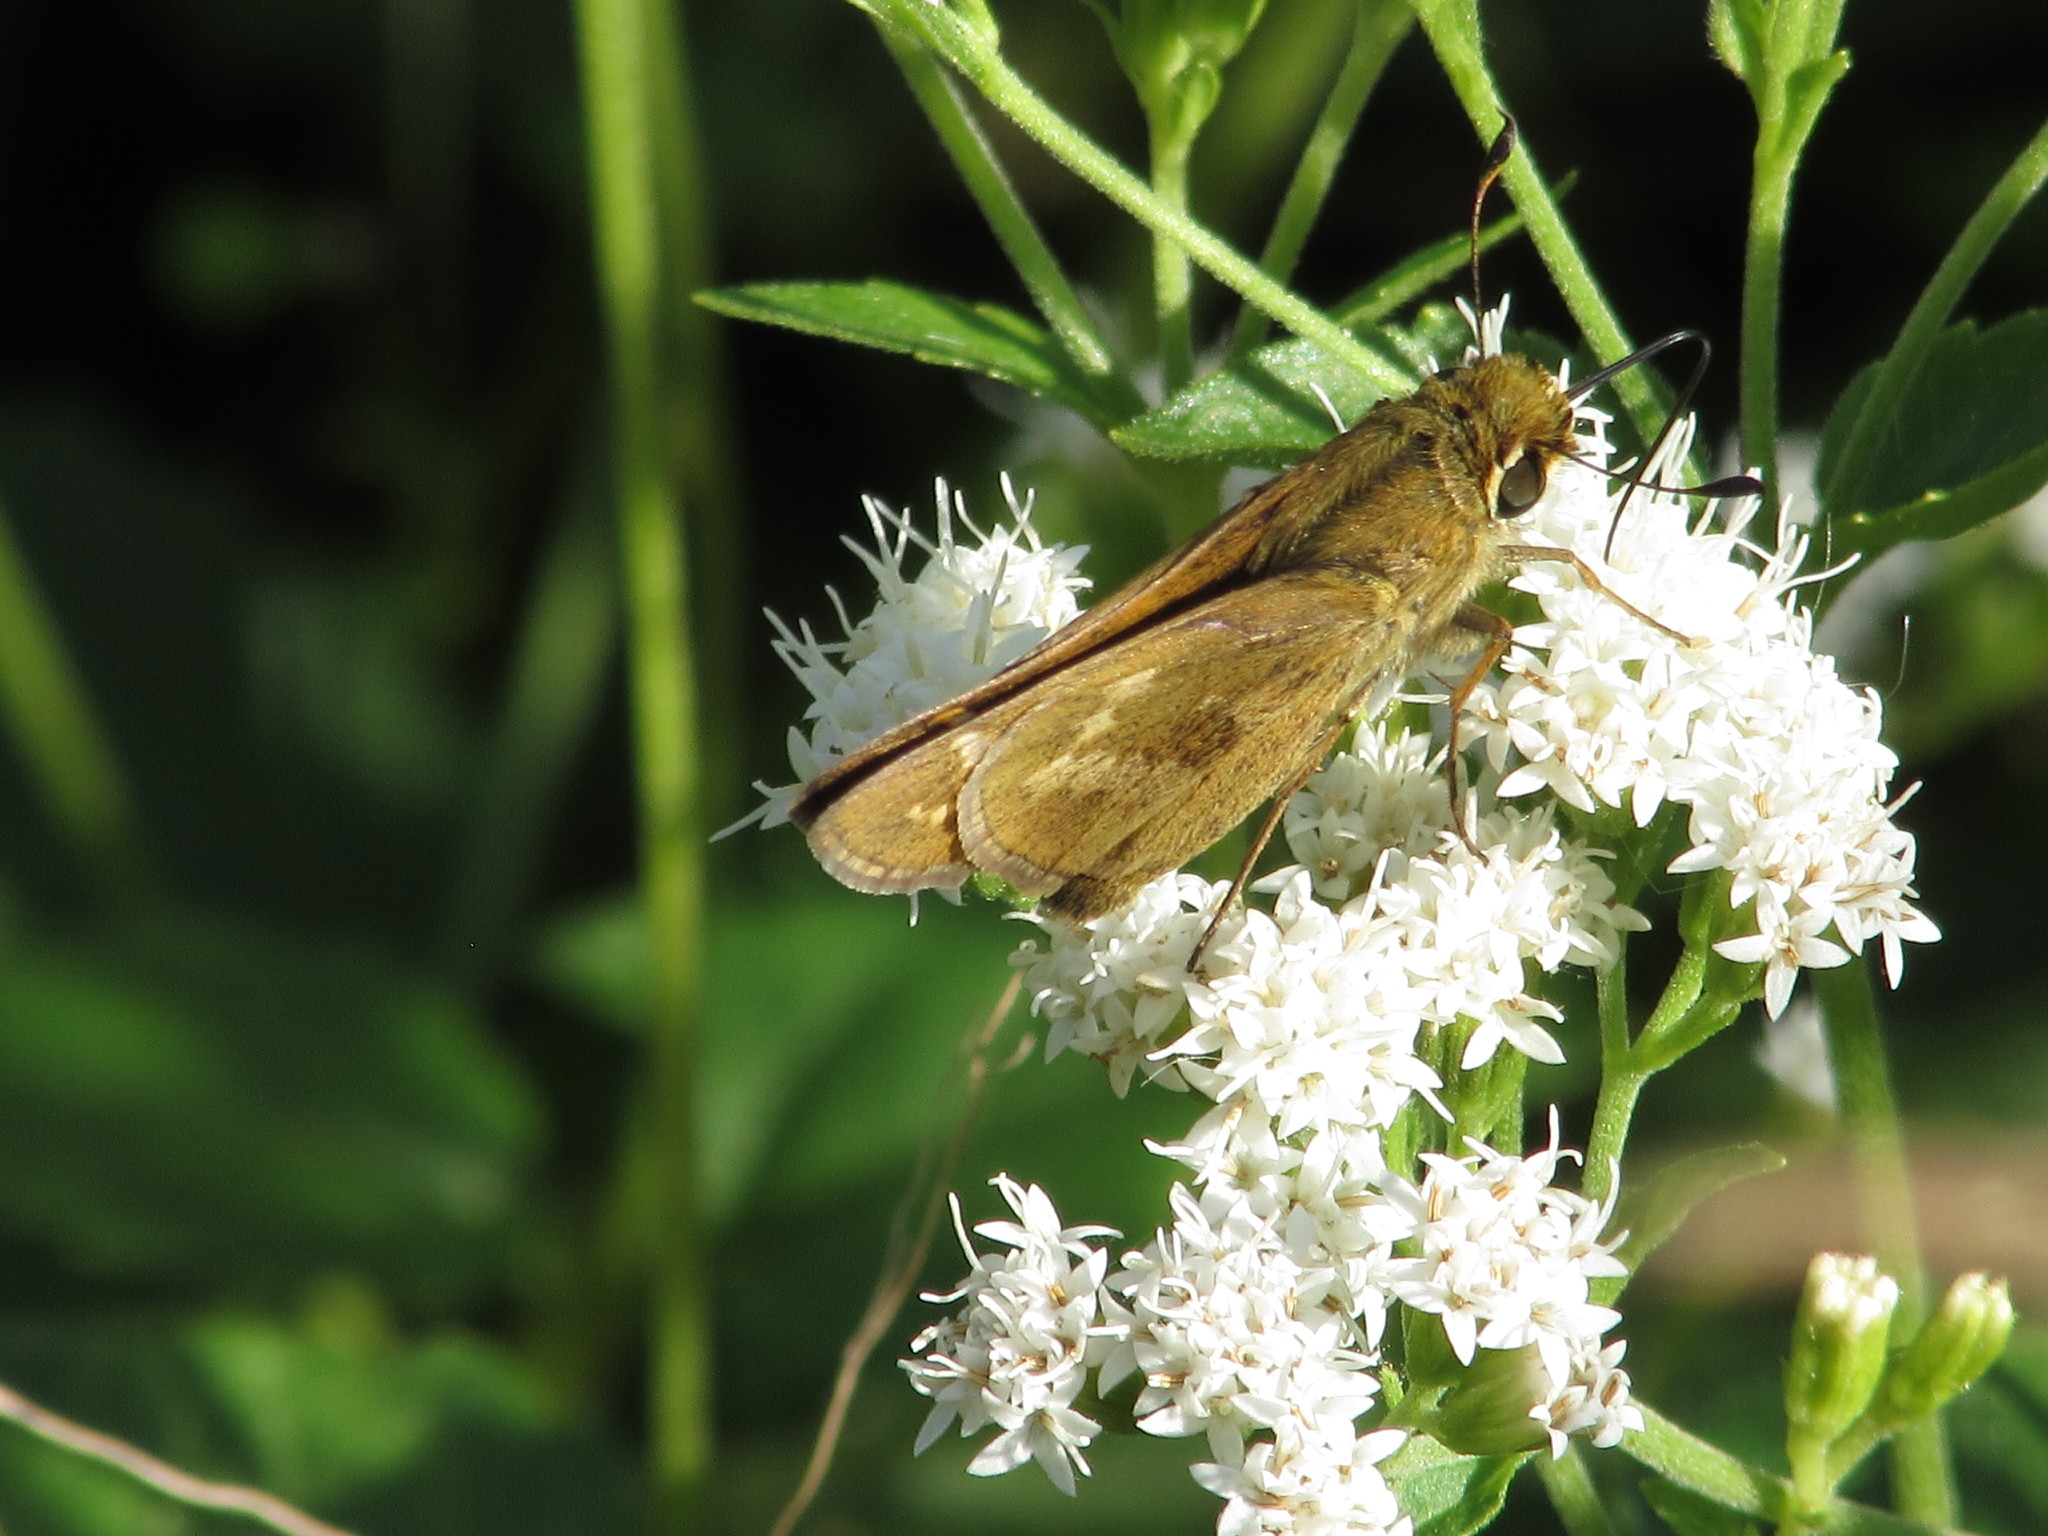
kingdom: Animalia
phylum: Arthropoda
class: Insecta
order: Lepidoptera
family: Hesperiidae
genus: Atalopedes
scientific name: Atalopedes
